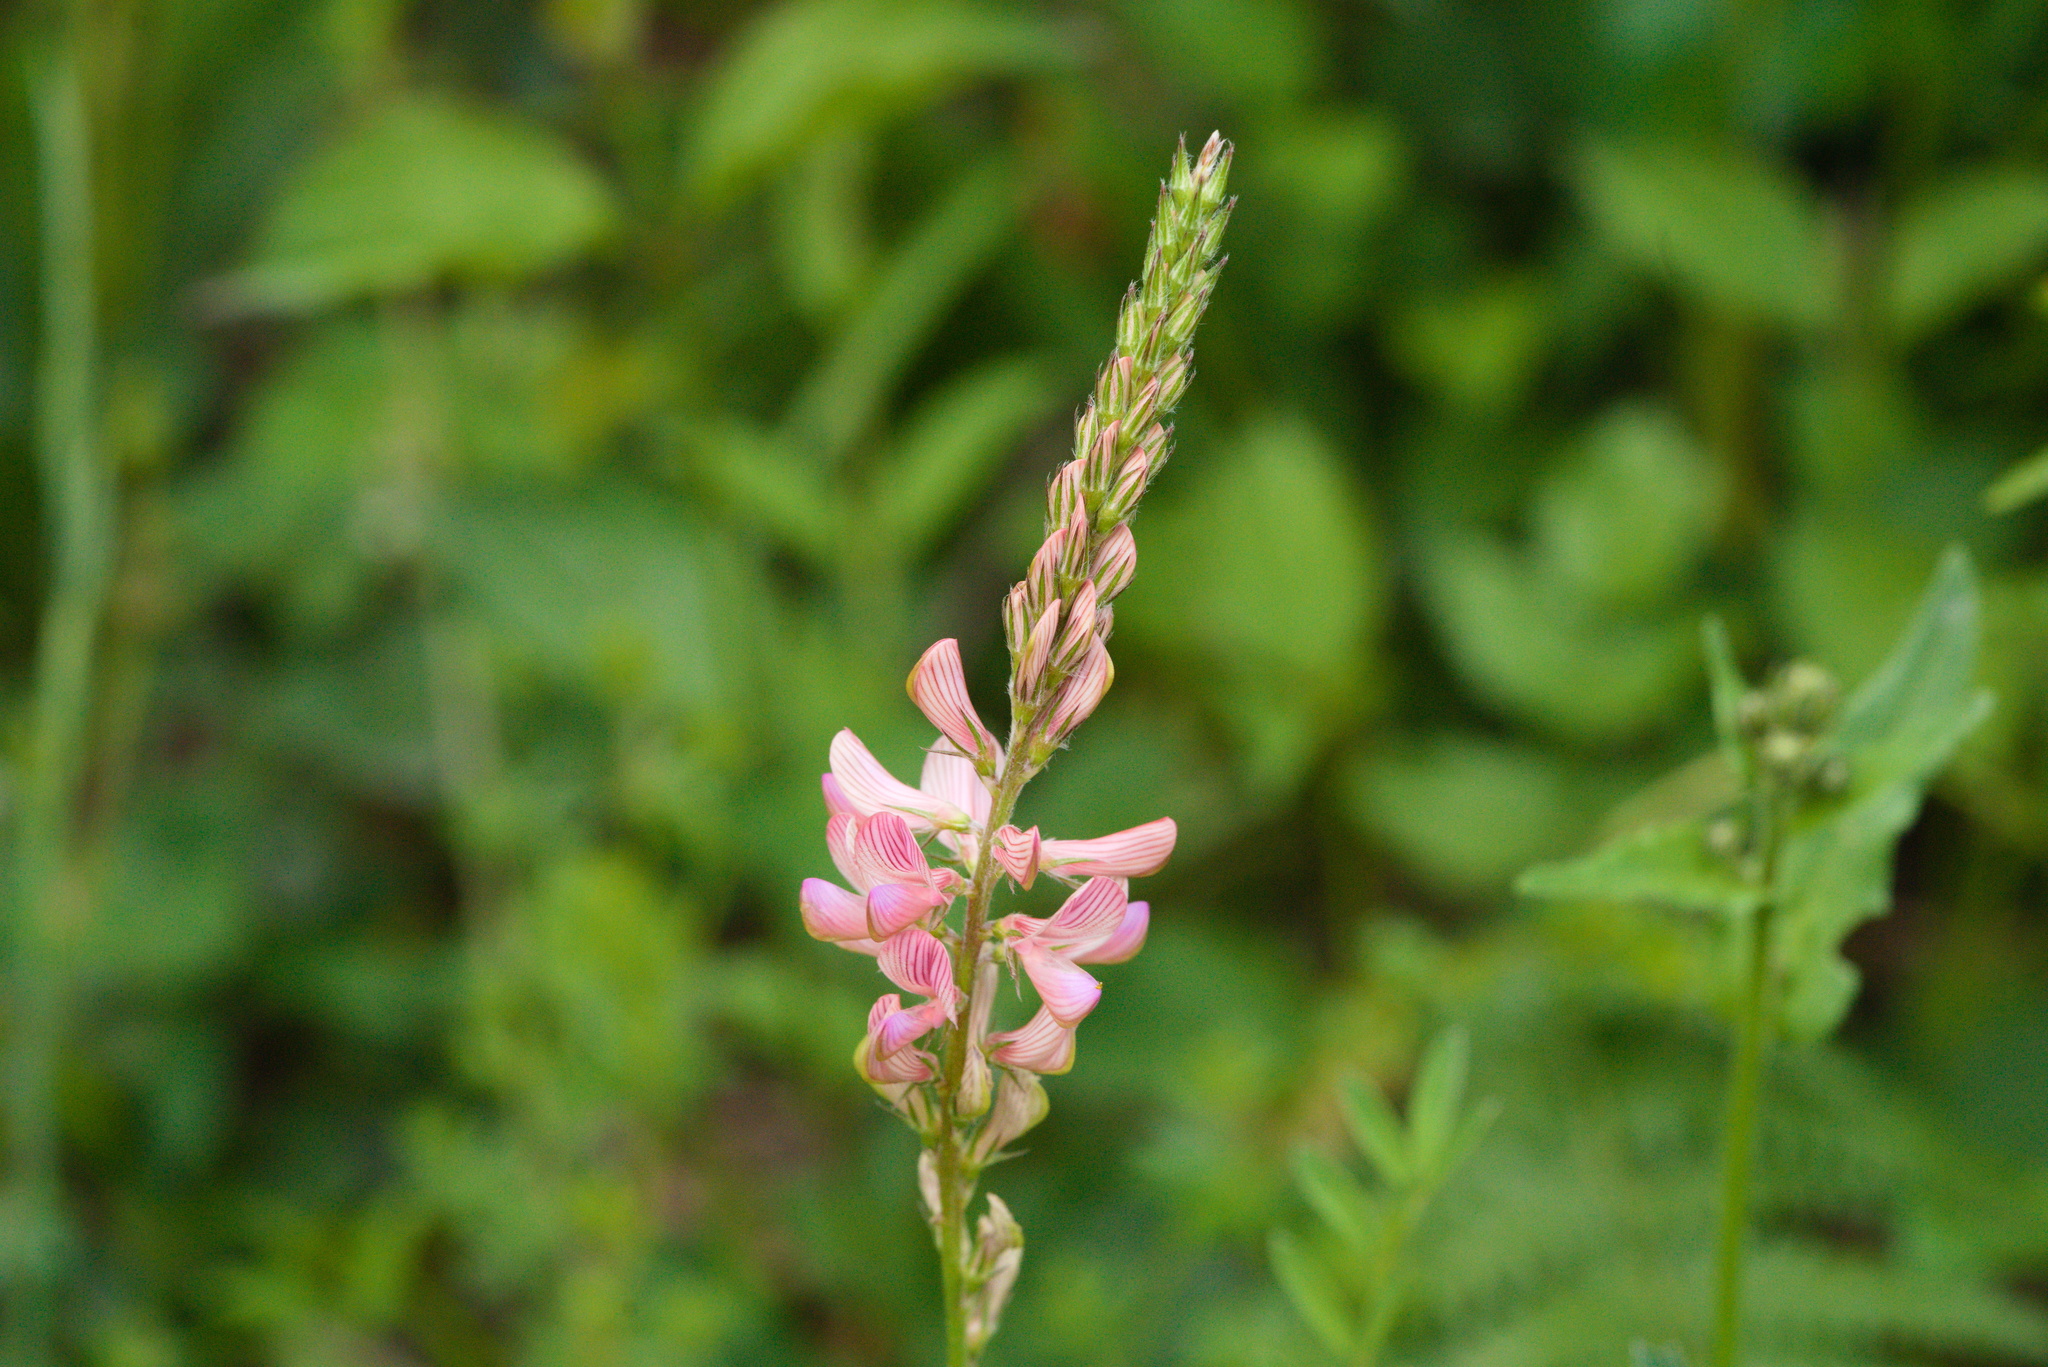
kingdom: Plantae
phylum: Tracheophyta
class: Magnoliopsida
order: Fabales
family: Fabaceae
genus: Onobrychis
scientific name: Onobrychis viciifolia
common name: Sainfoin
